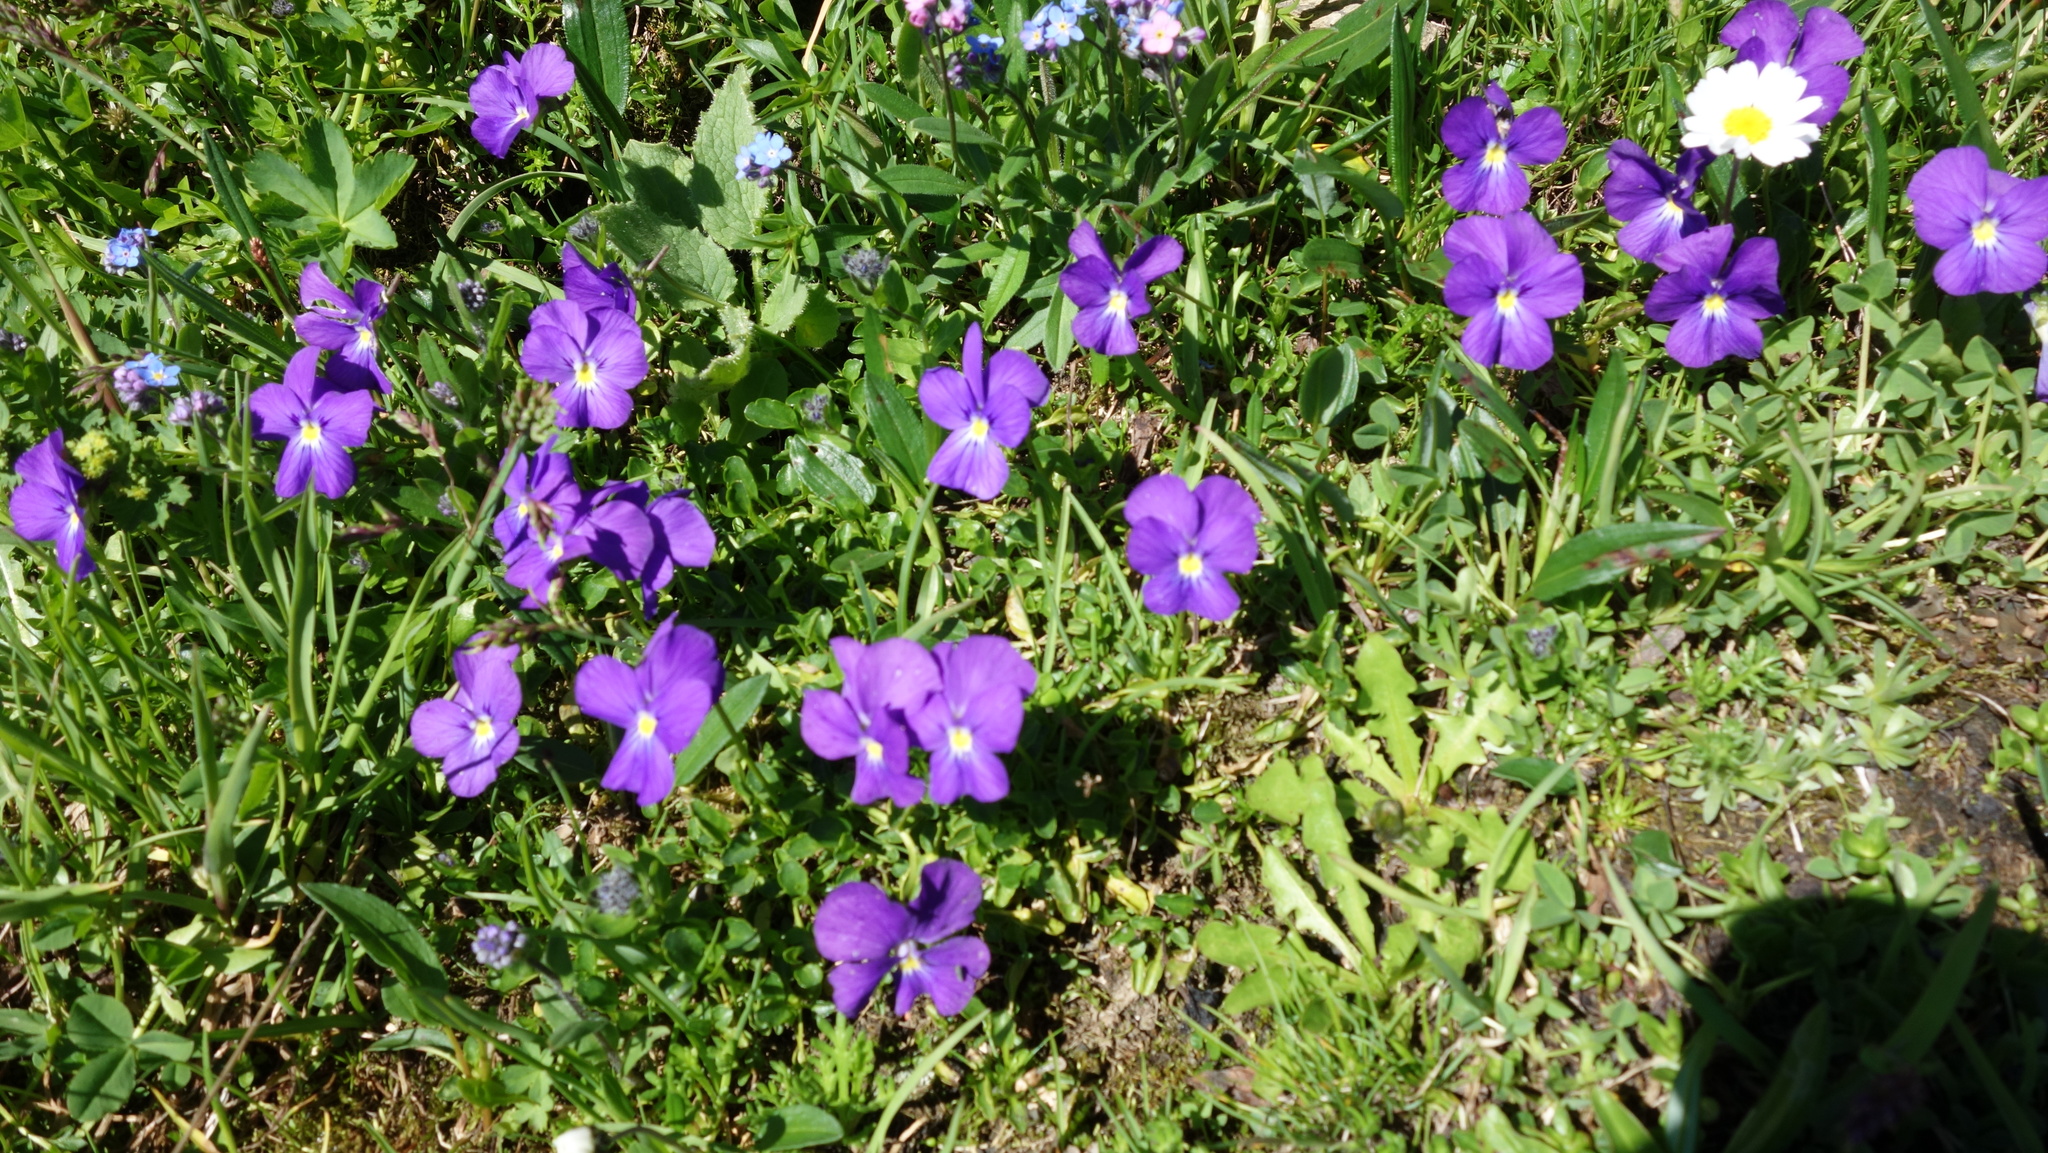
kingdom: Plantae
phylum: Tracheophyta
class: Magnoliopsida
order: Malpighiales
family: Violaceae
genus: Viola
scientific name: Viola calcarata
